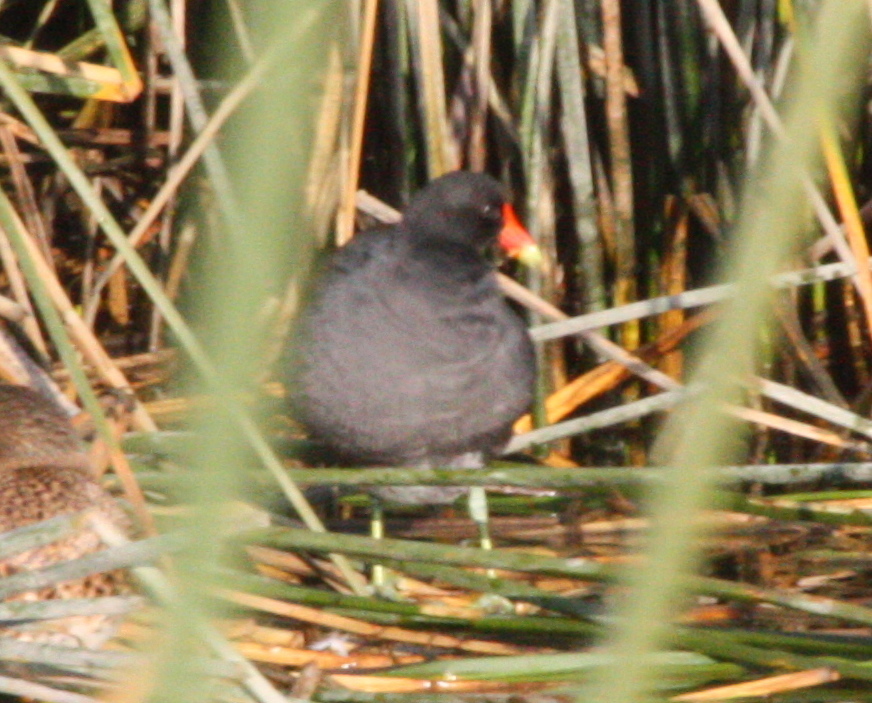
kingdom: Animalia
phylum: Chordata
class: Aves
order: Gruiformes
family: Rallidae
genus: Gallinula
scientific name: Gallinula chloropus
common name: Common moorhen
